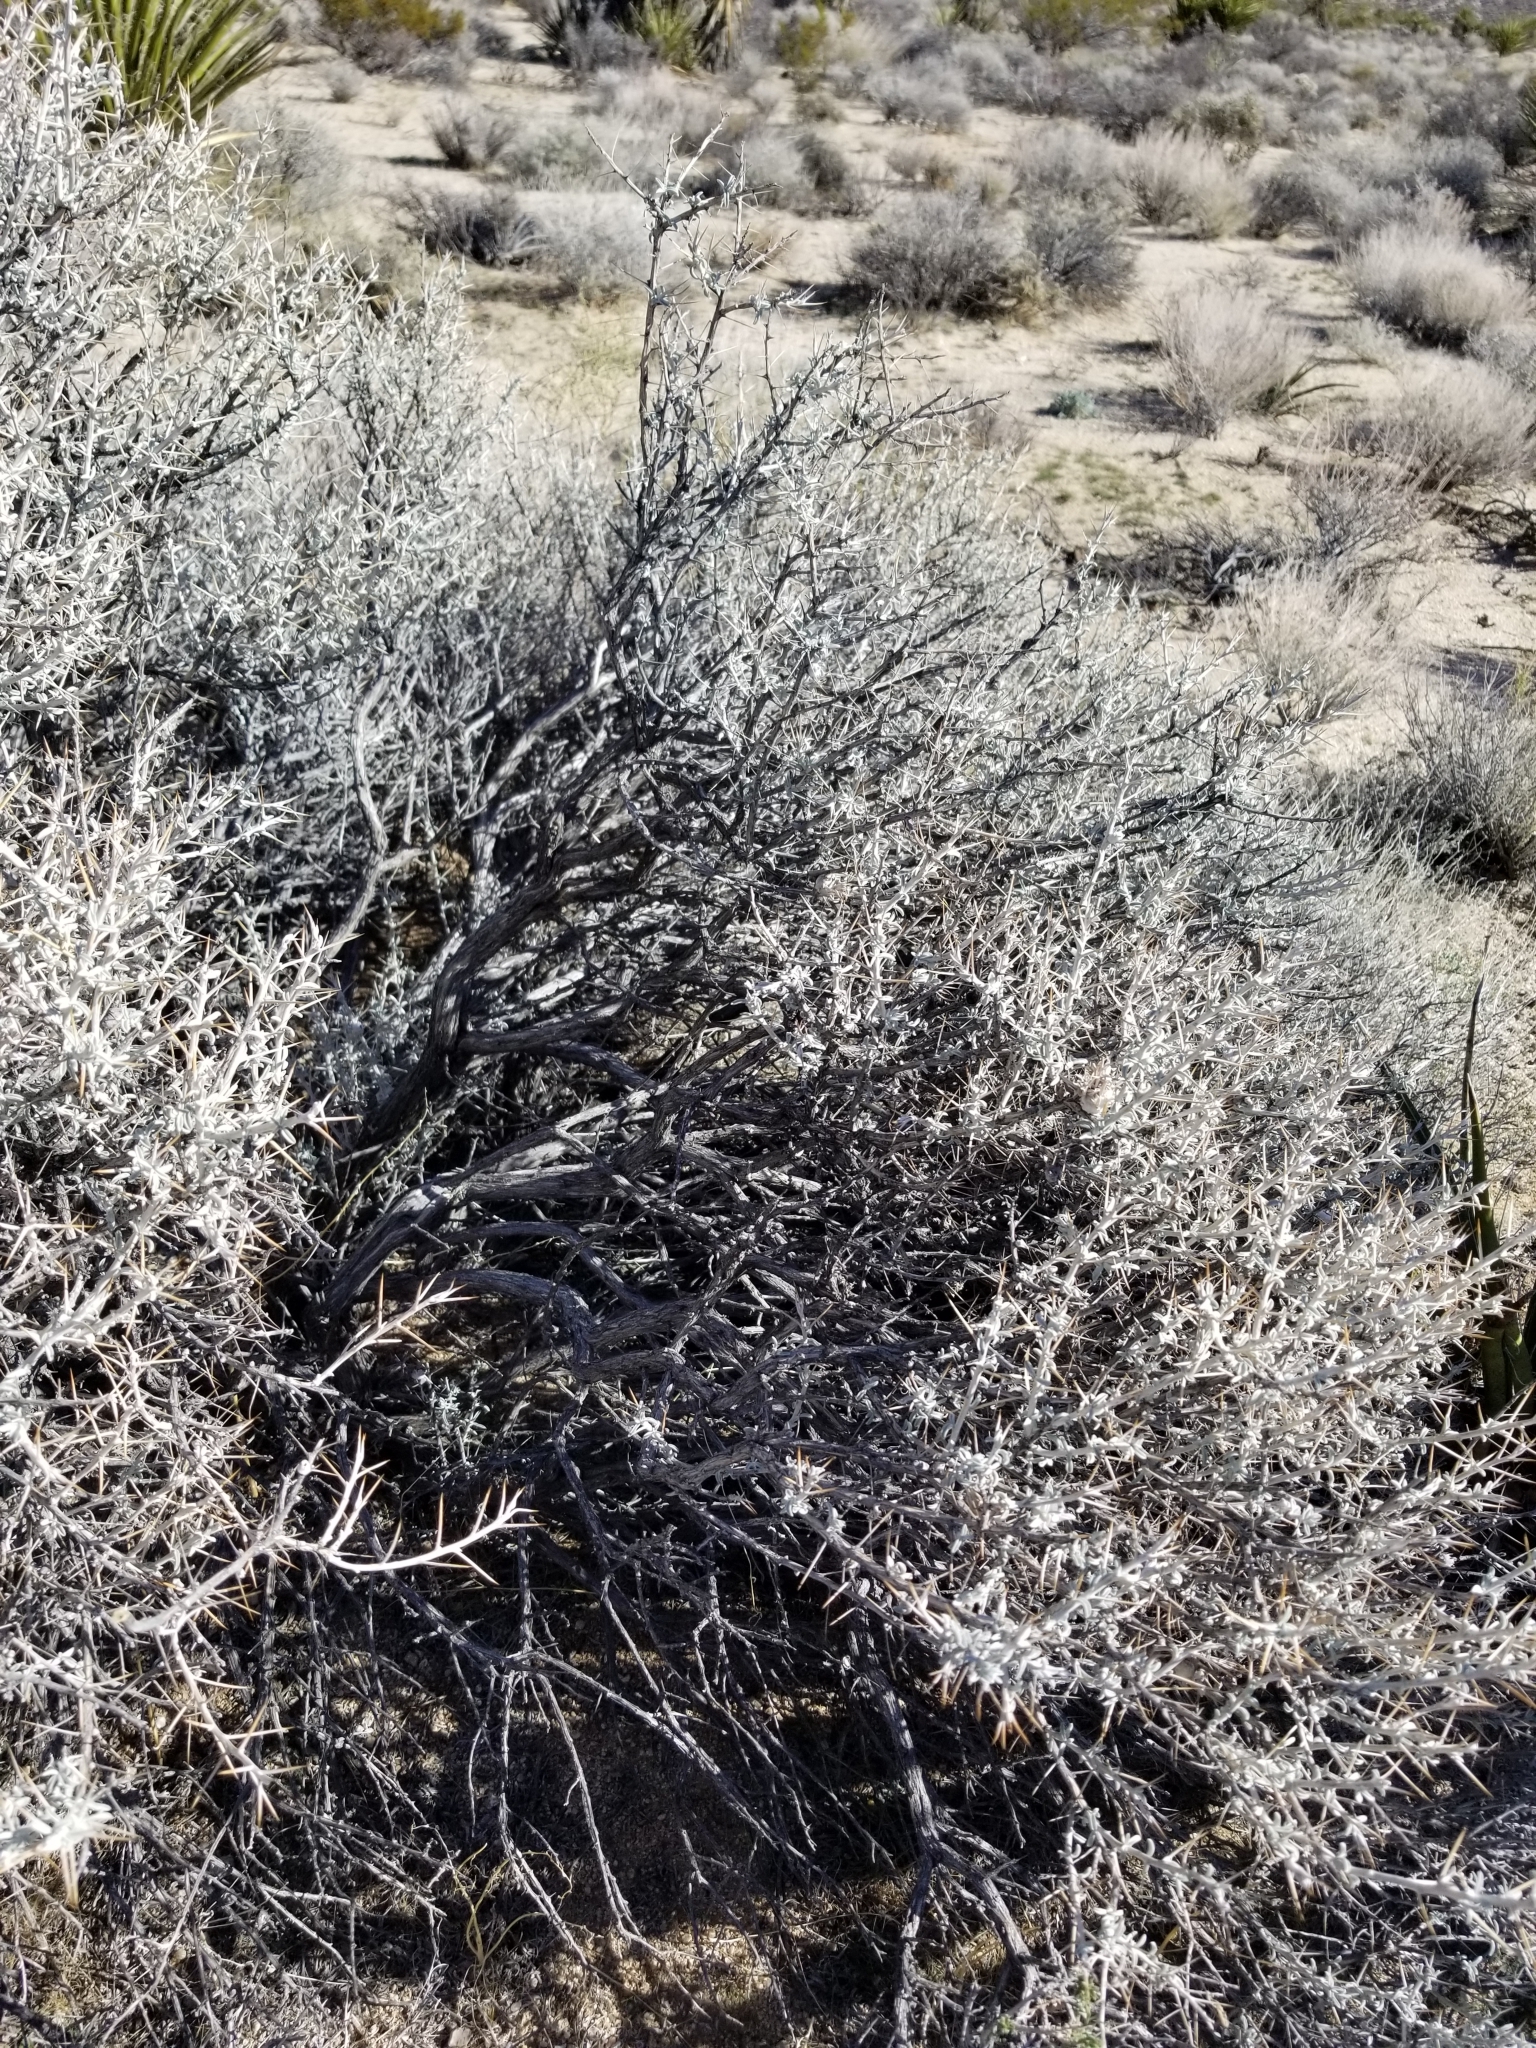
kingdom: Plantae
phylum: Tracheophyta
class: Magnoliopsida
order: Asterales
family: Asteraceae
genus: Tetradymia
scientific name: Tetradymia stenolepis
